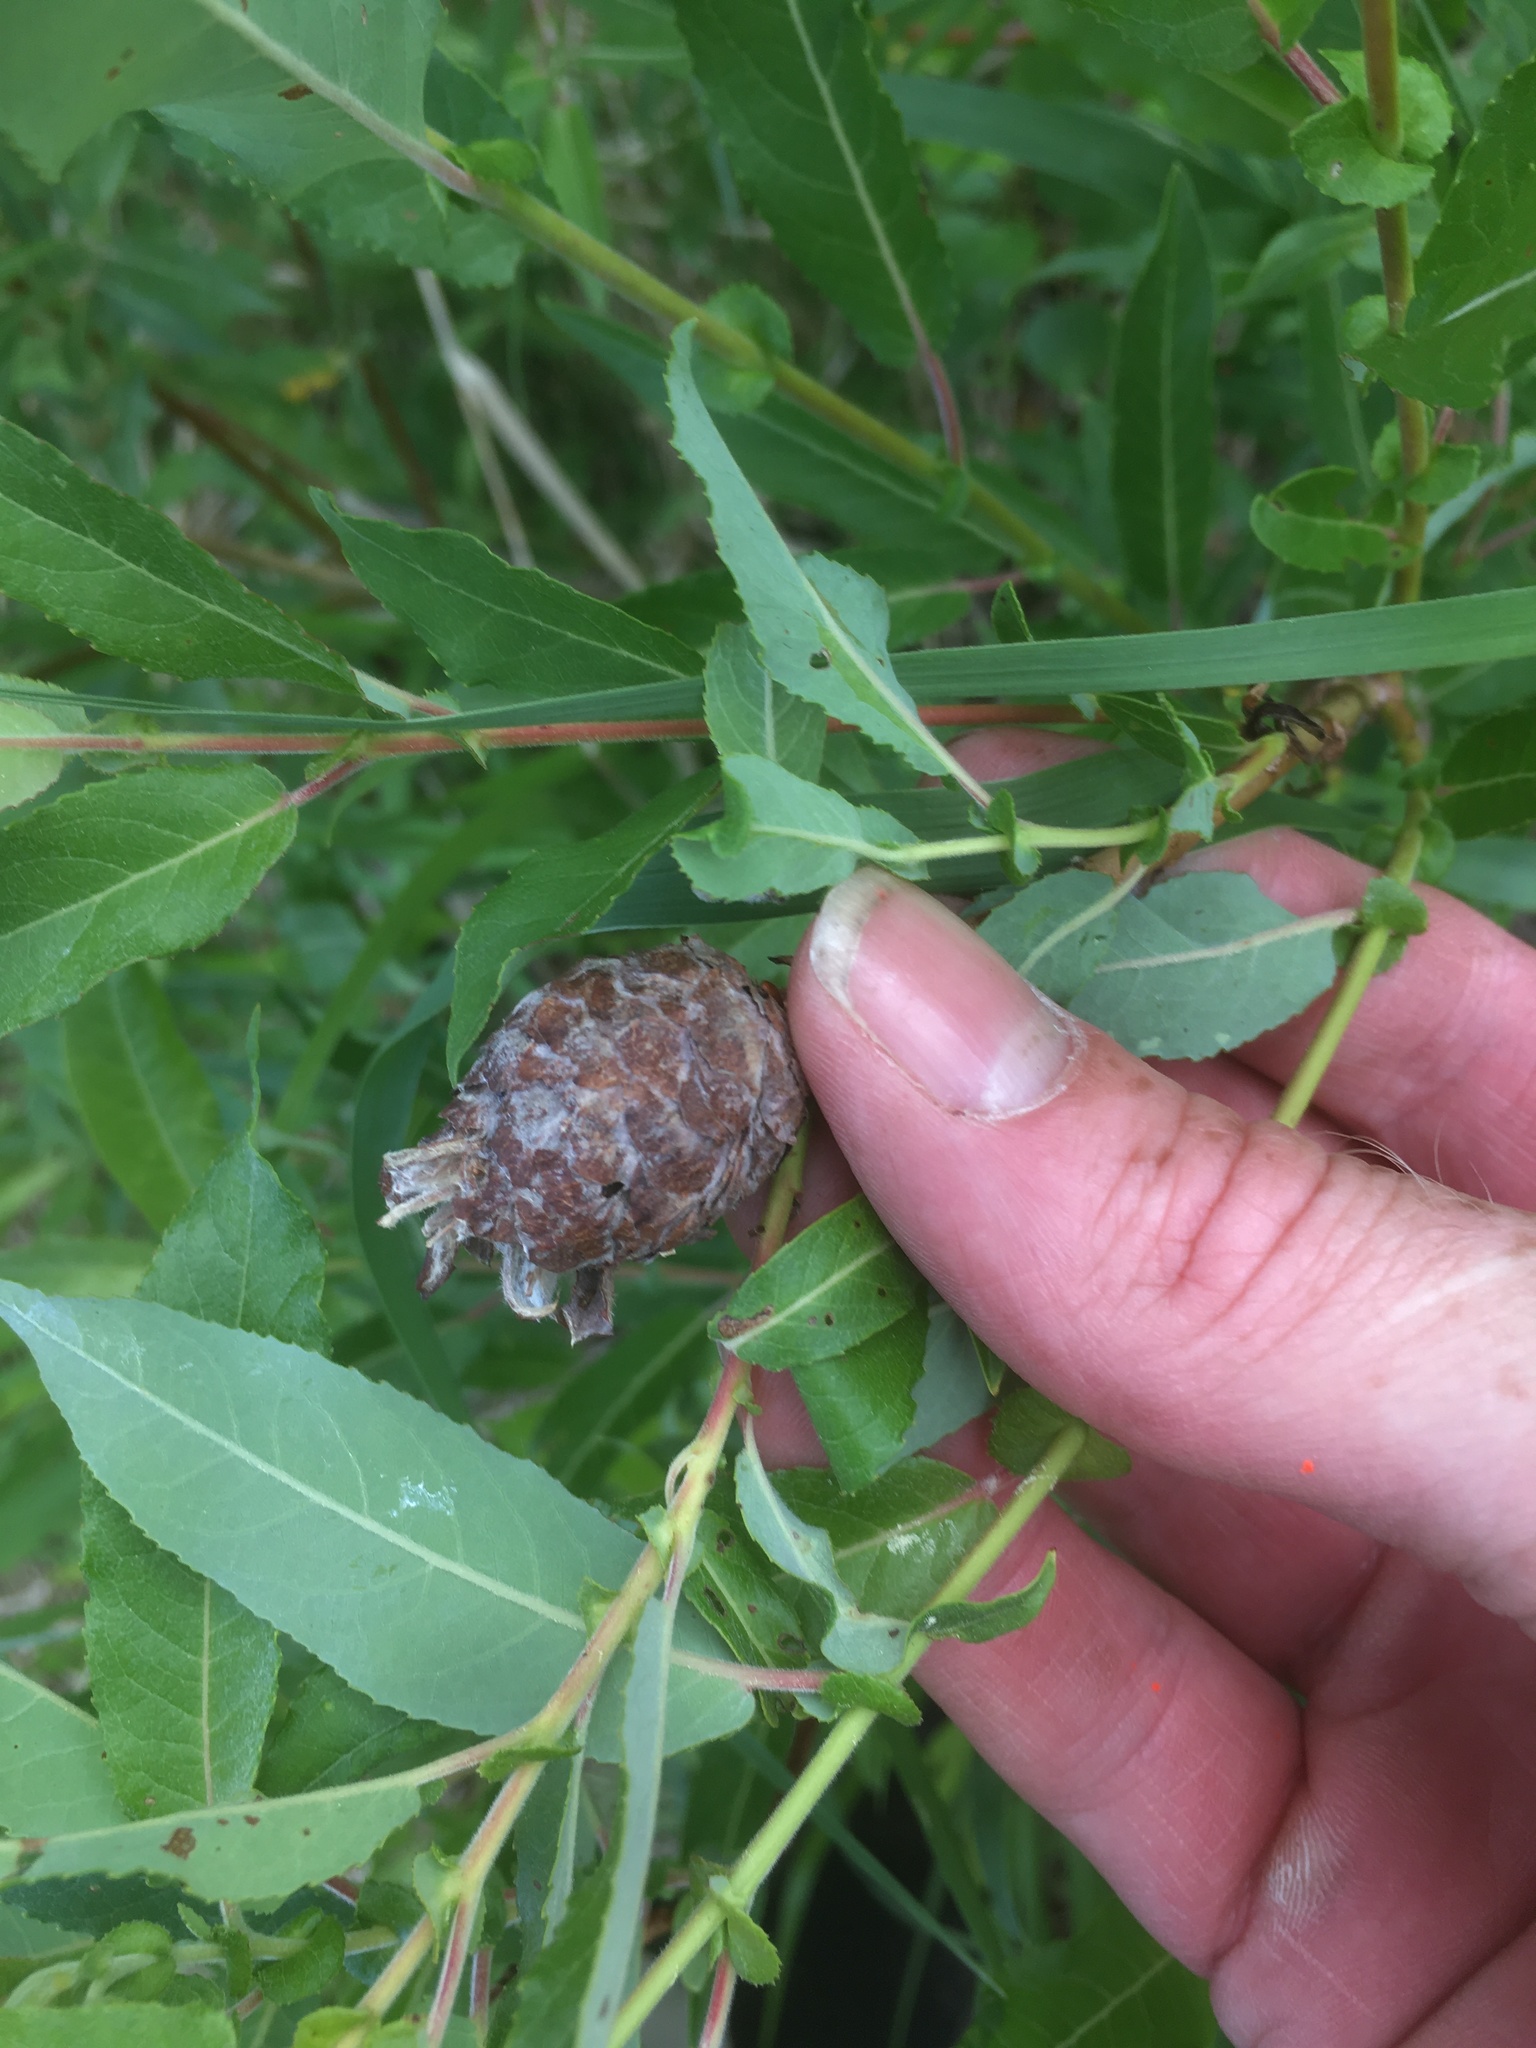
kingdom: Animalia
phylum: Arthropoda
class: Insecta
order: Diptera
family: Cecidomyiidae
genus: Rabdophaga
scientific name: Rabdophaga strobiloides
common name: Willow pinecone gall midge
